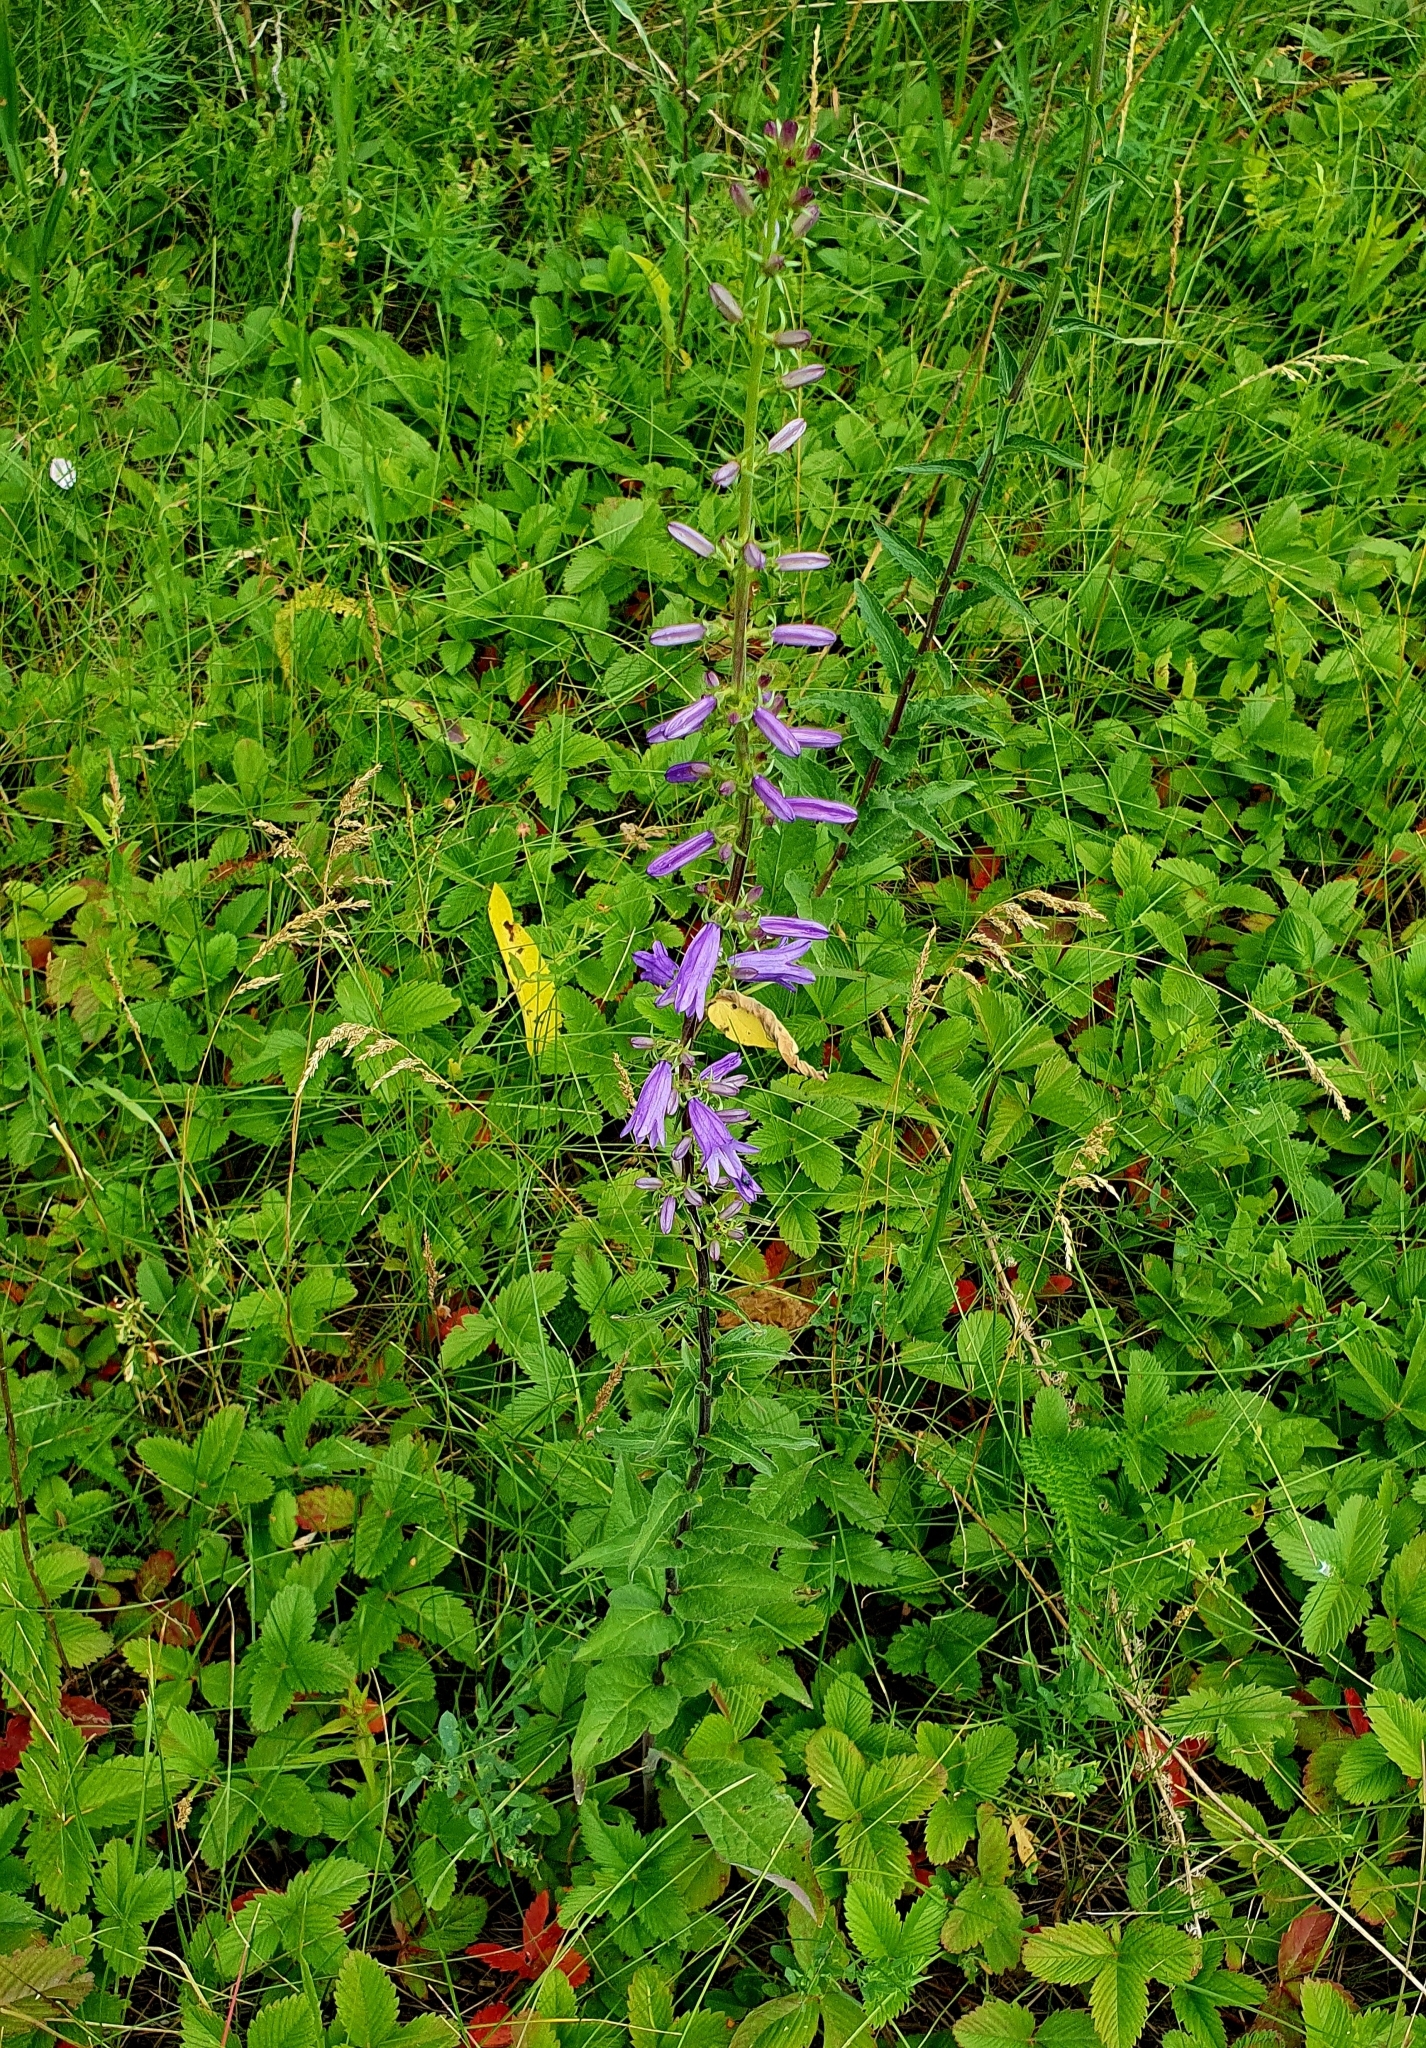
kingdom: Plantae
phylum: Tracheophyta
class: Magnoliopsida
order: Asterales
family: Campanulaceae
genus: Campanula
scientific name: Campanula bononiensis
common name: Pale bellflower
